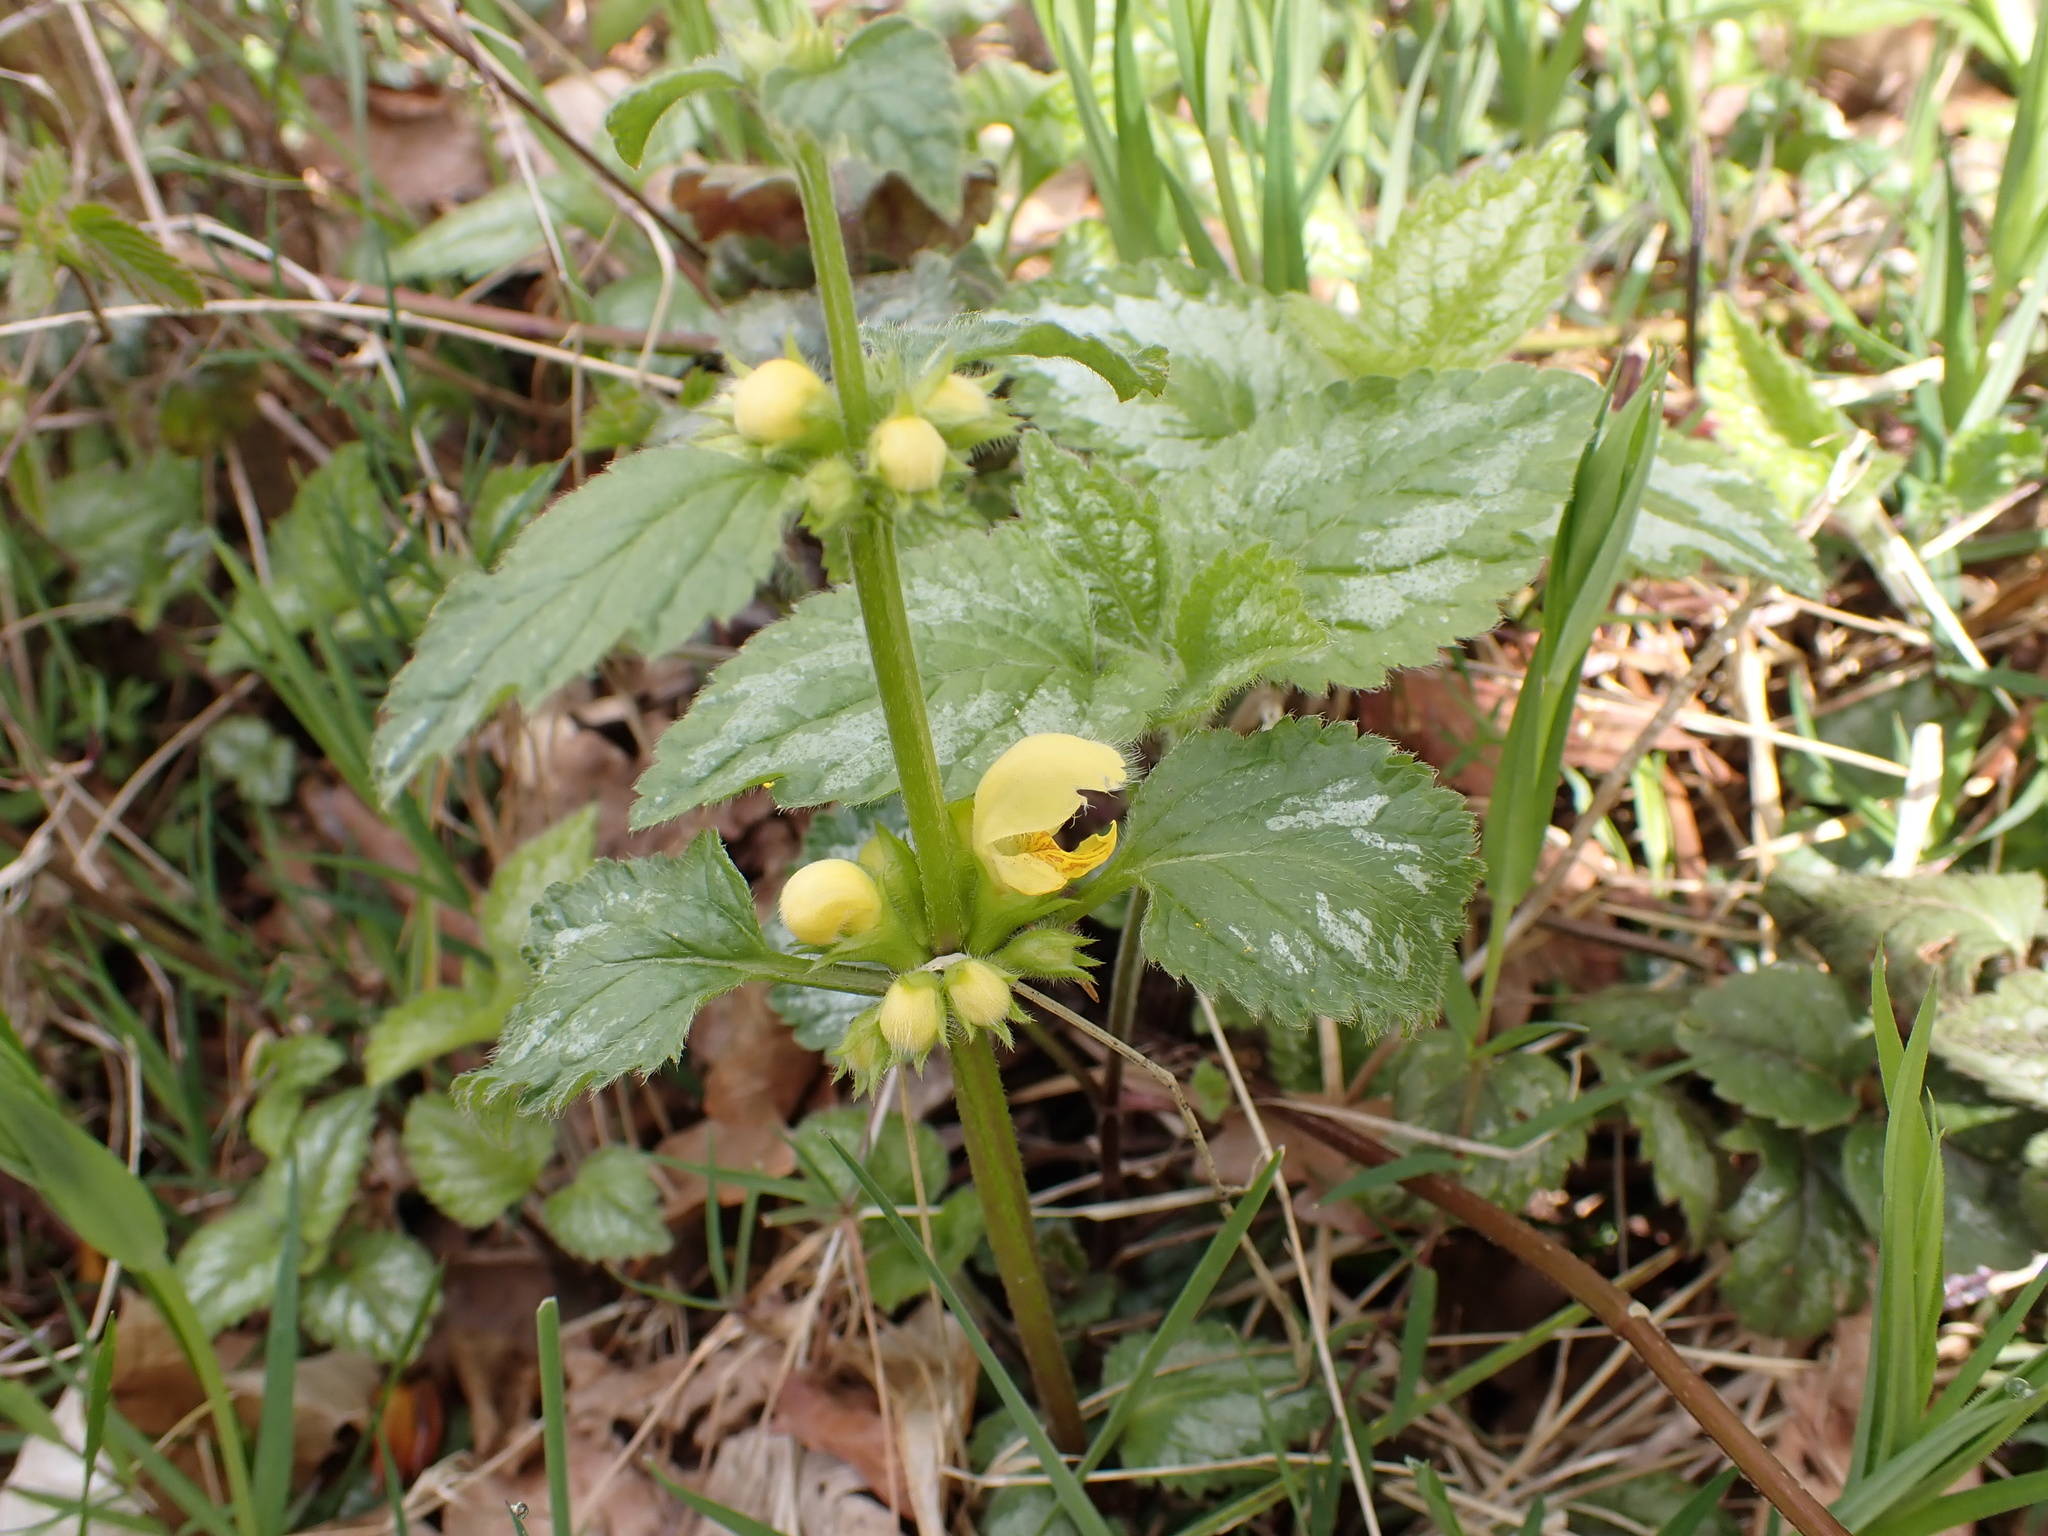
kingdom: Plantae
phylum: Tracheophyta
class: Magnoliopsida
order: Lamiales
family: Lamiaceae
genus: Lamium
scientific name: Lamium galeobdolon
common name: Yellow archangel
